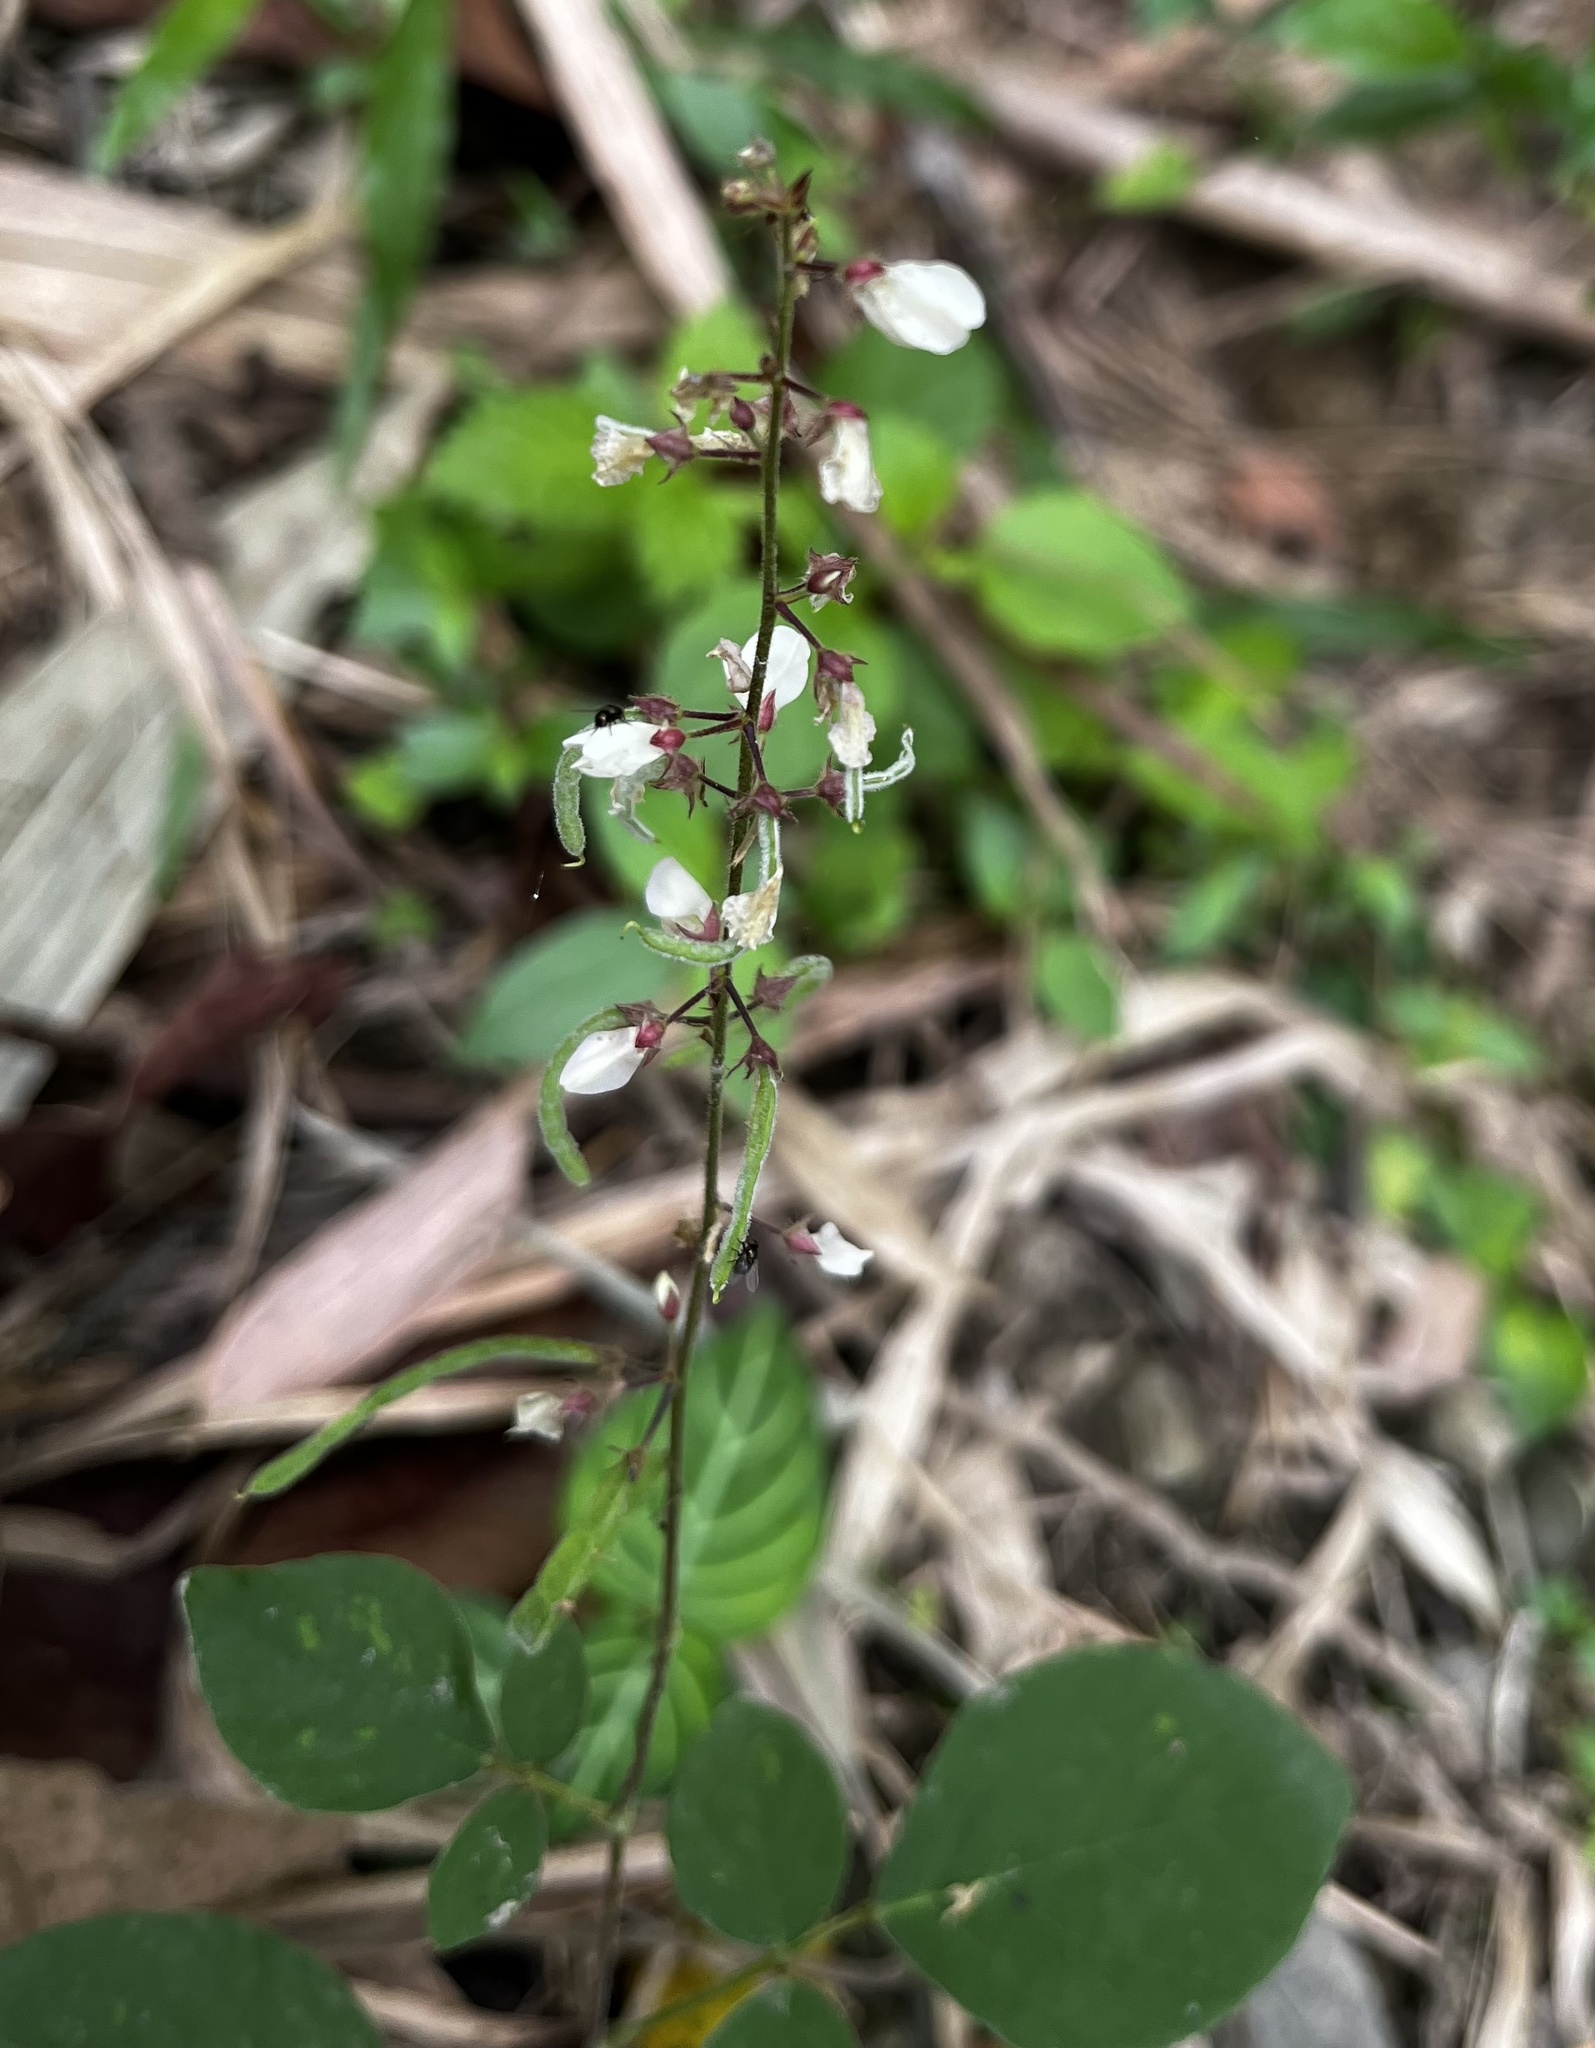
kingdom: Plantae
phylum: Tracheophyta
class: Magnoliopsida
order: Fabales
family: Fabaceae
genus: Sohmaea
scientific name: Sohmaea diffusa
